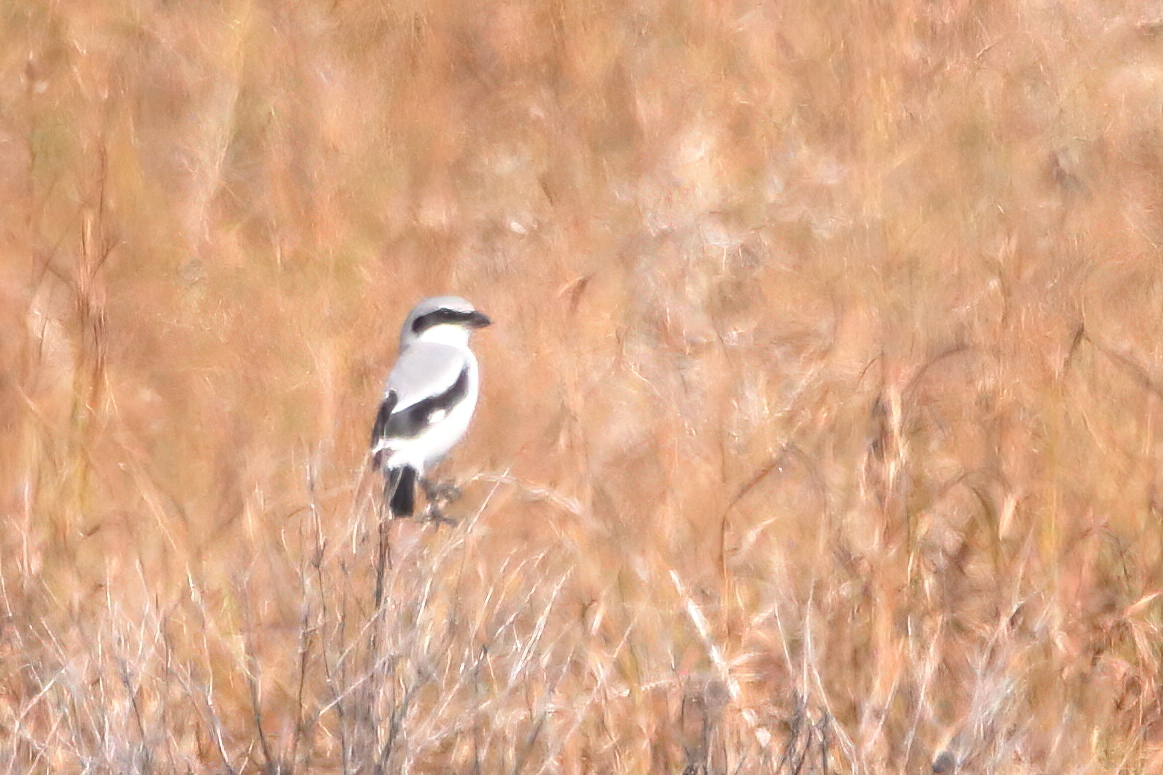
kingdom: Animalia
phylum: Chordata
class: Aves
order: Passeriformes
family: Laniidae
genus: Lanius
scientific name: Lanius ludovicianus
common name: Loggerhead shrike
